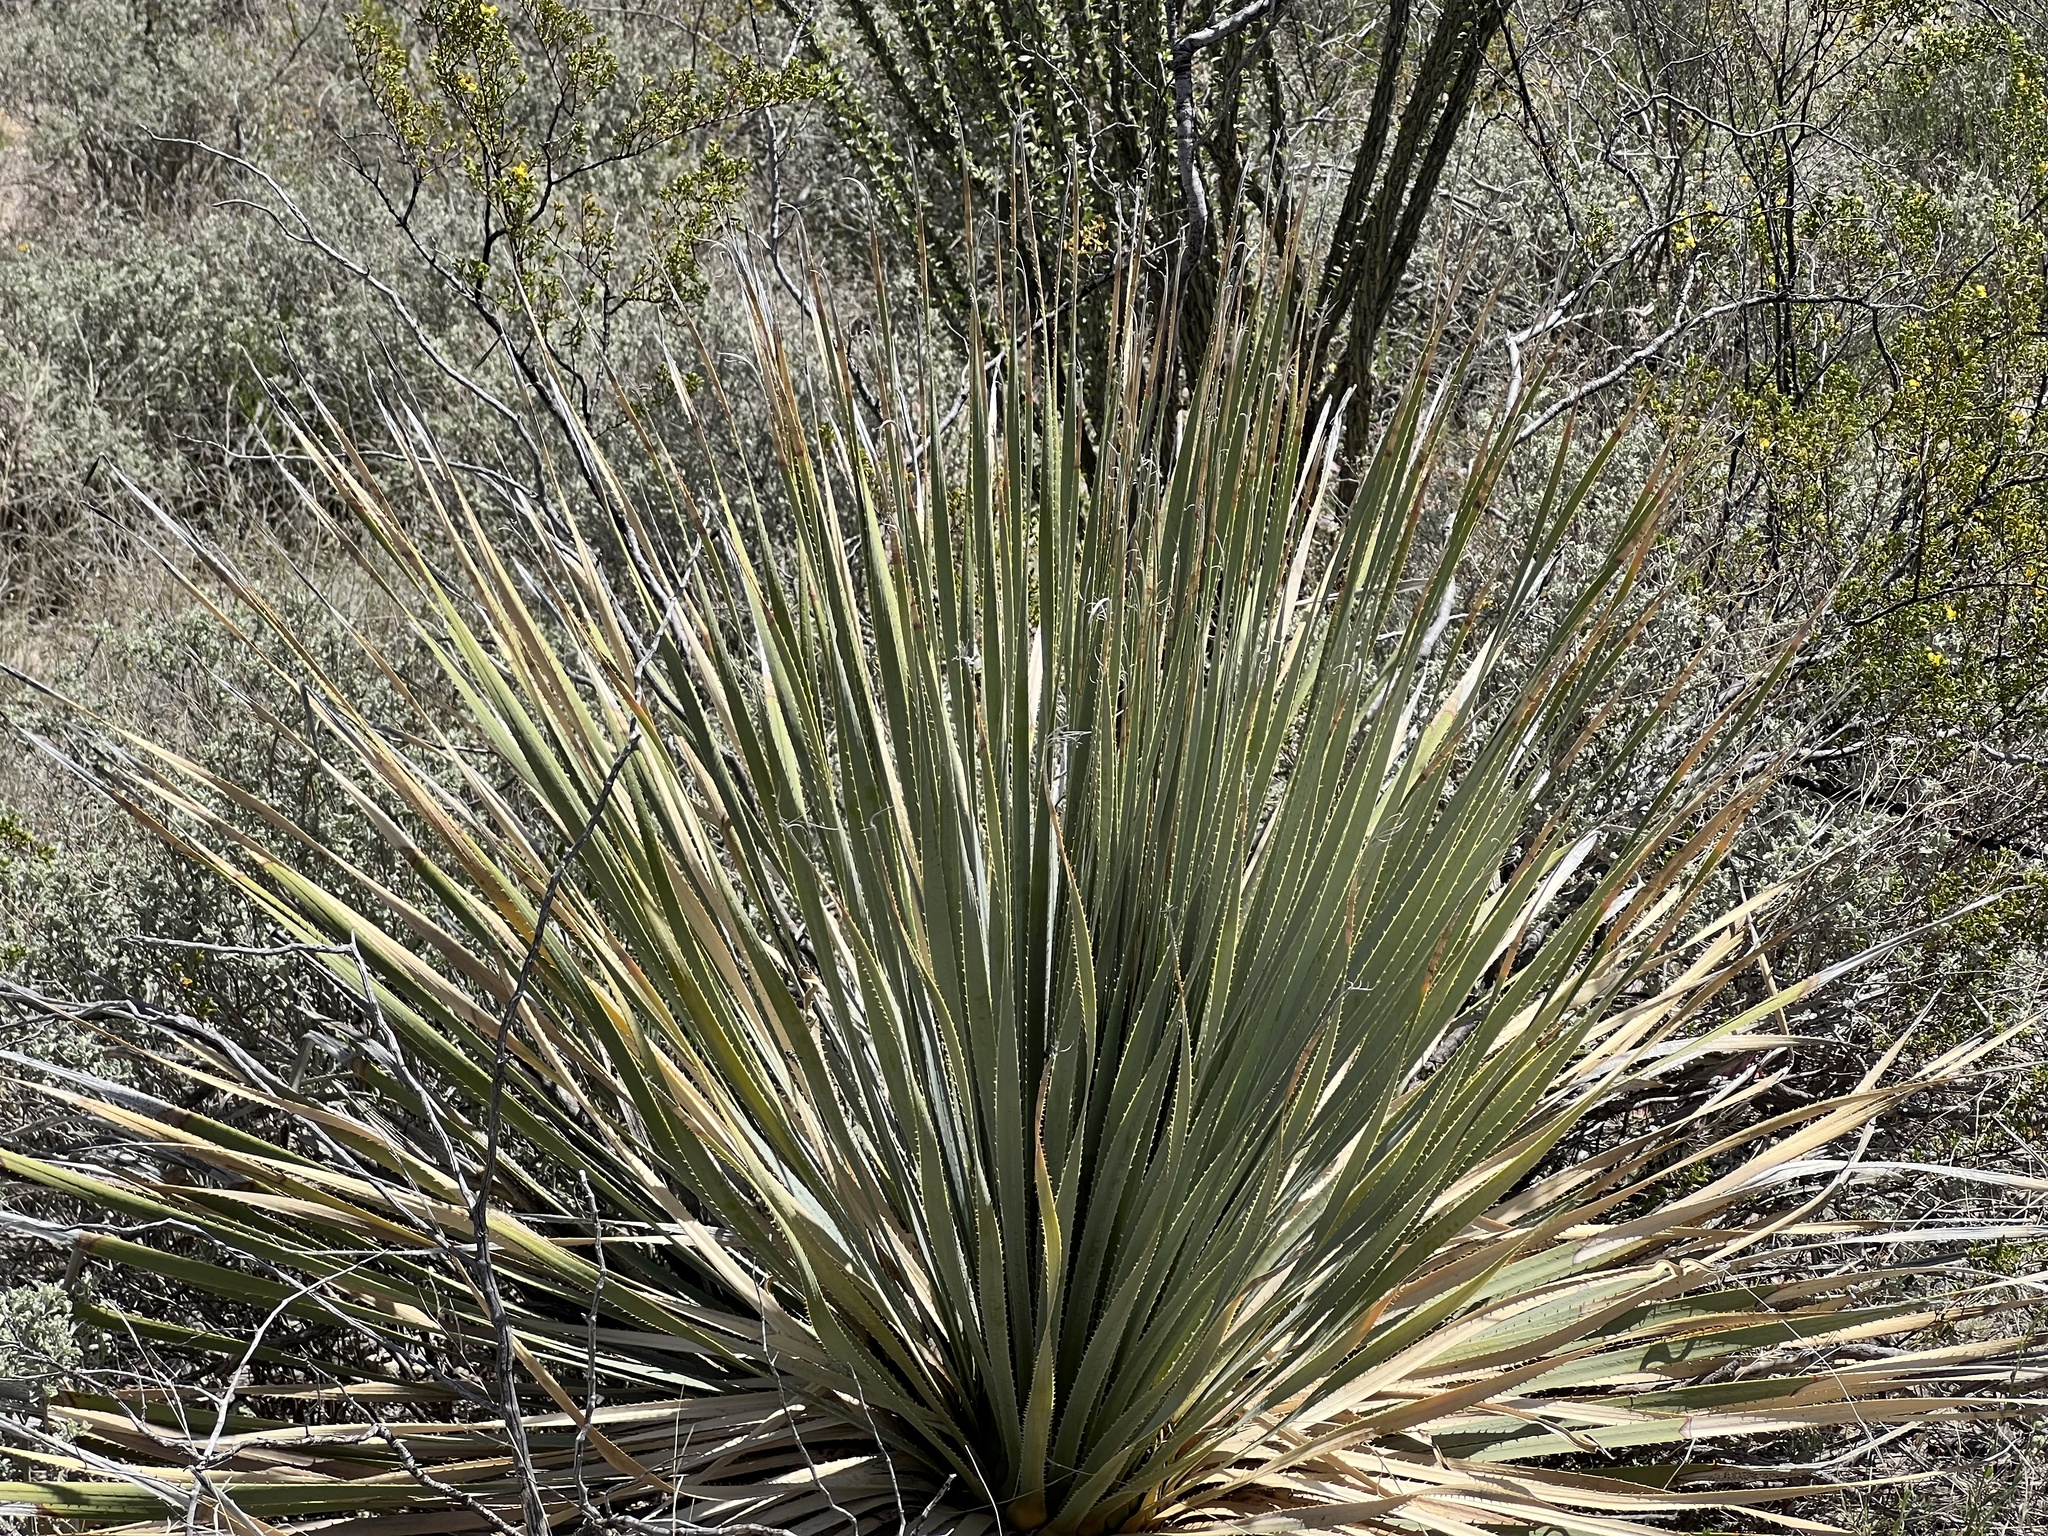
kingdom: Plantae
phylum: Tracheophyta
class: Liliopsida
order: Asparagales
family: Asparagaceae
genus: Dasylirion
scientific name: Dasylirion wheeleri
